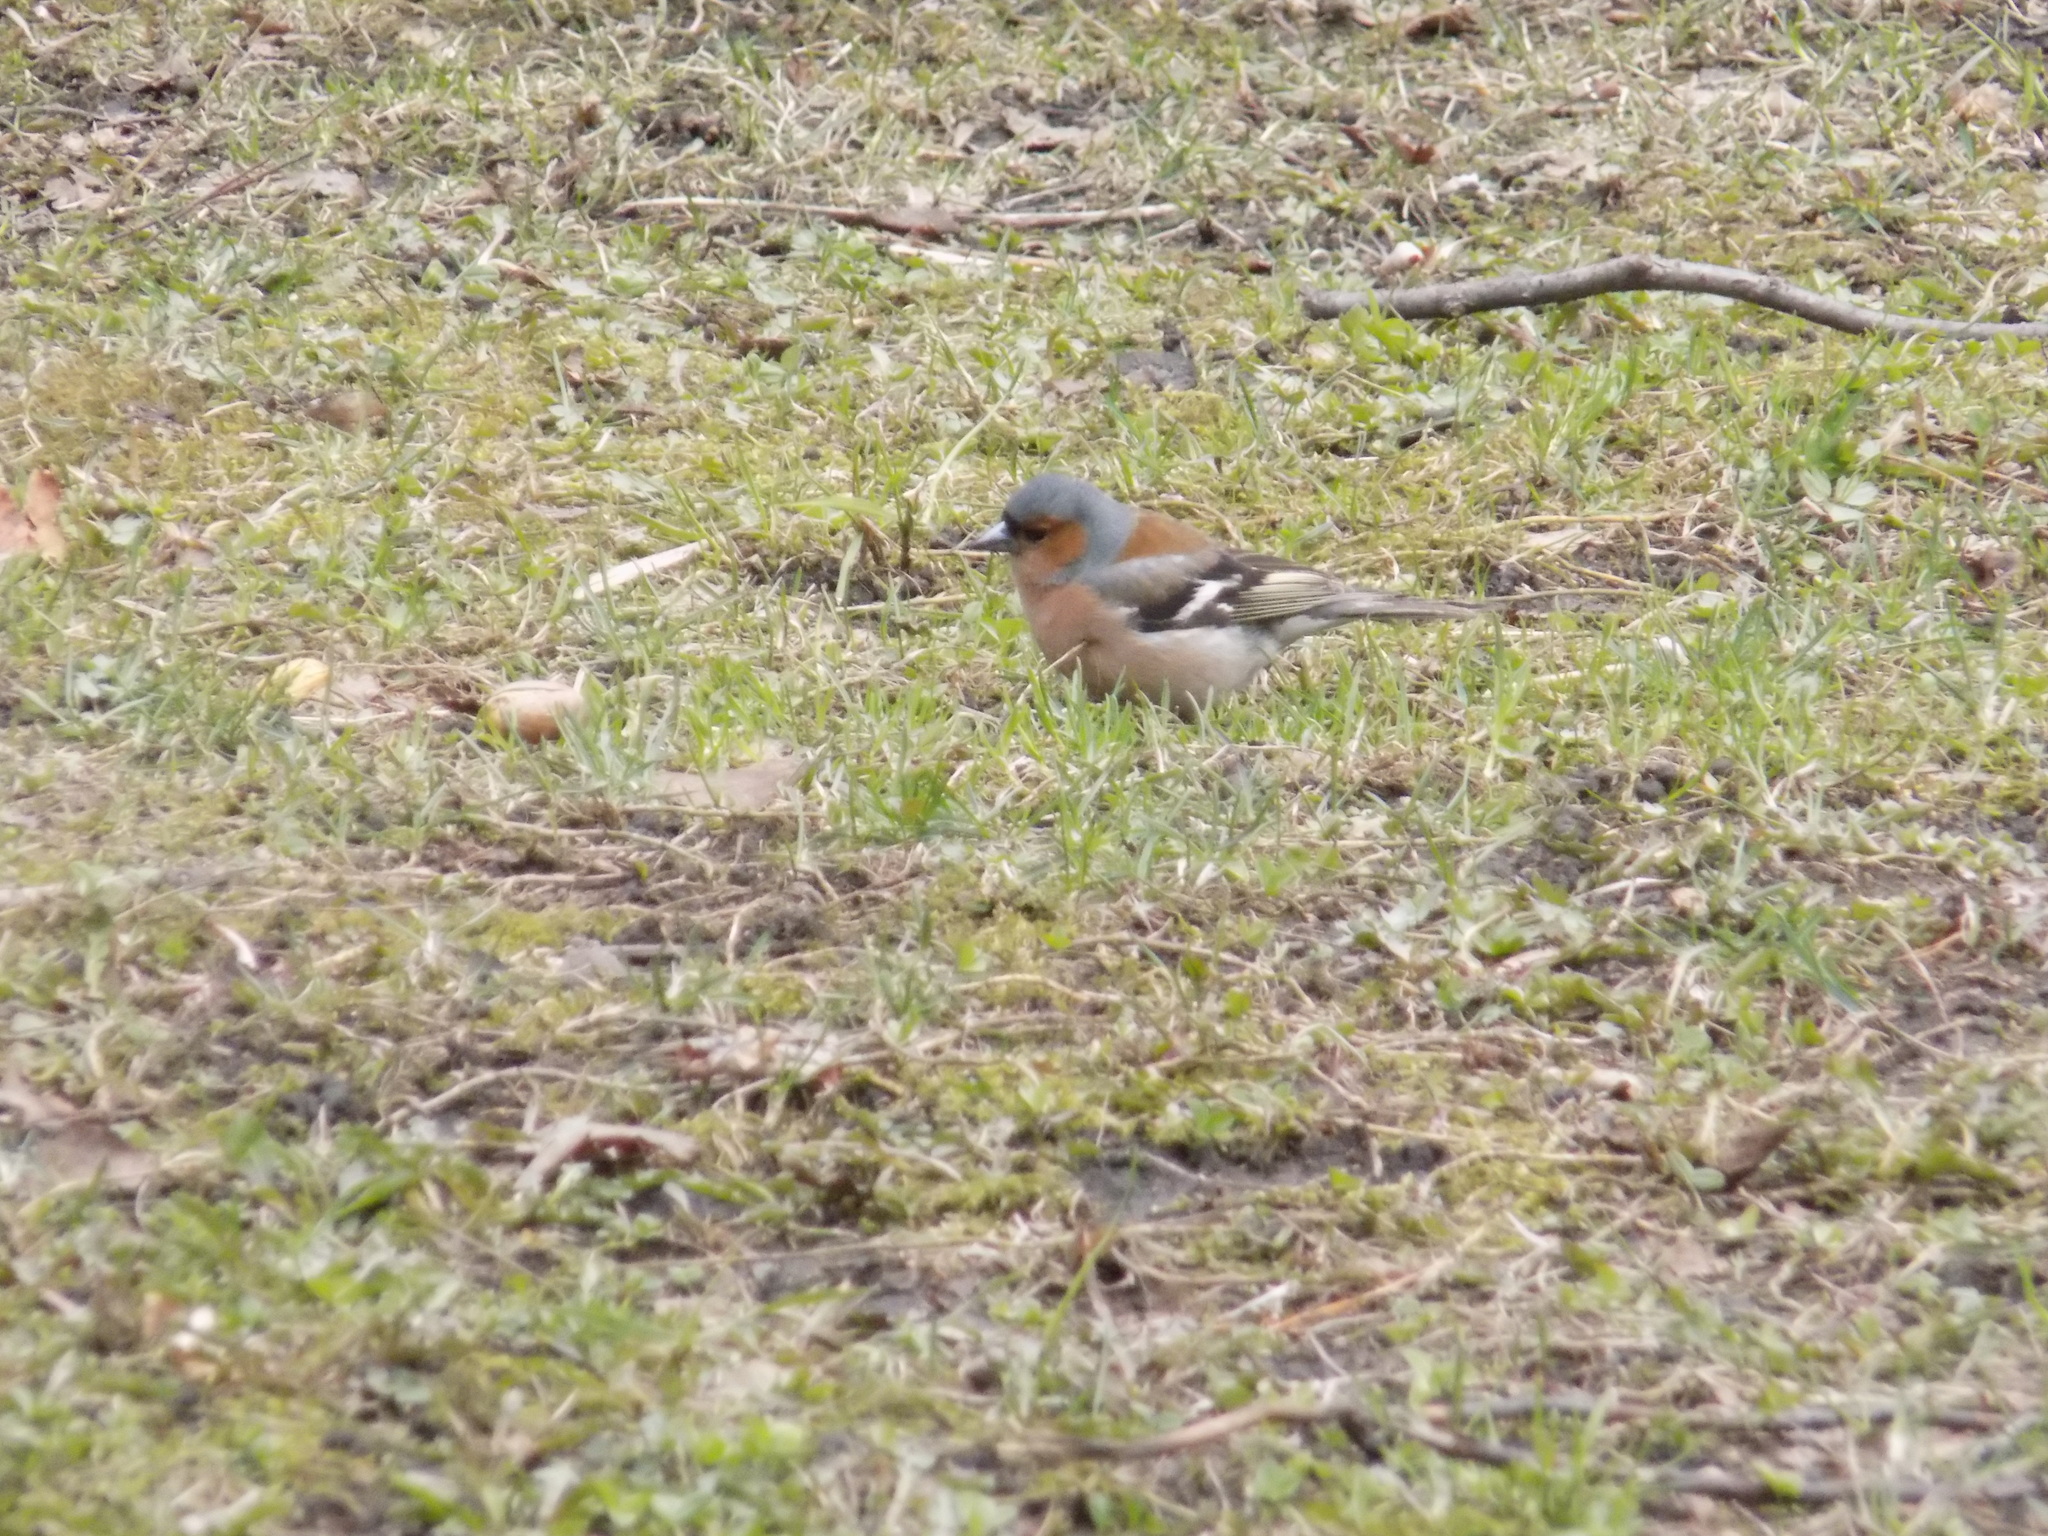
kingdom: Animalia
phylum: Chordata
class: Aves
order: Passeriformes
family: Fringillidae
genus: Fringilla
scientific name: Fringilla coelebs
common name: Common chaffinch
